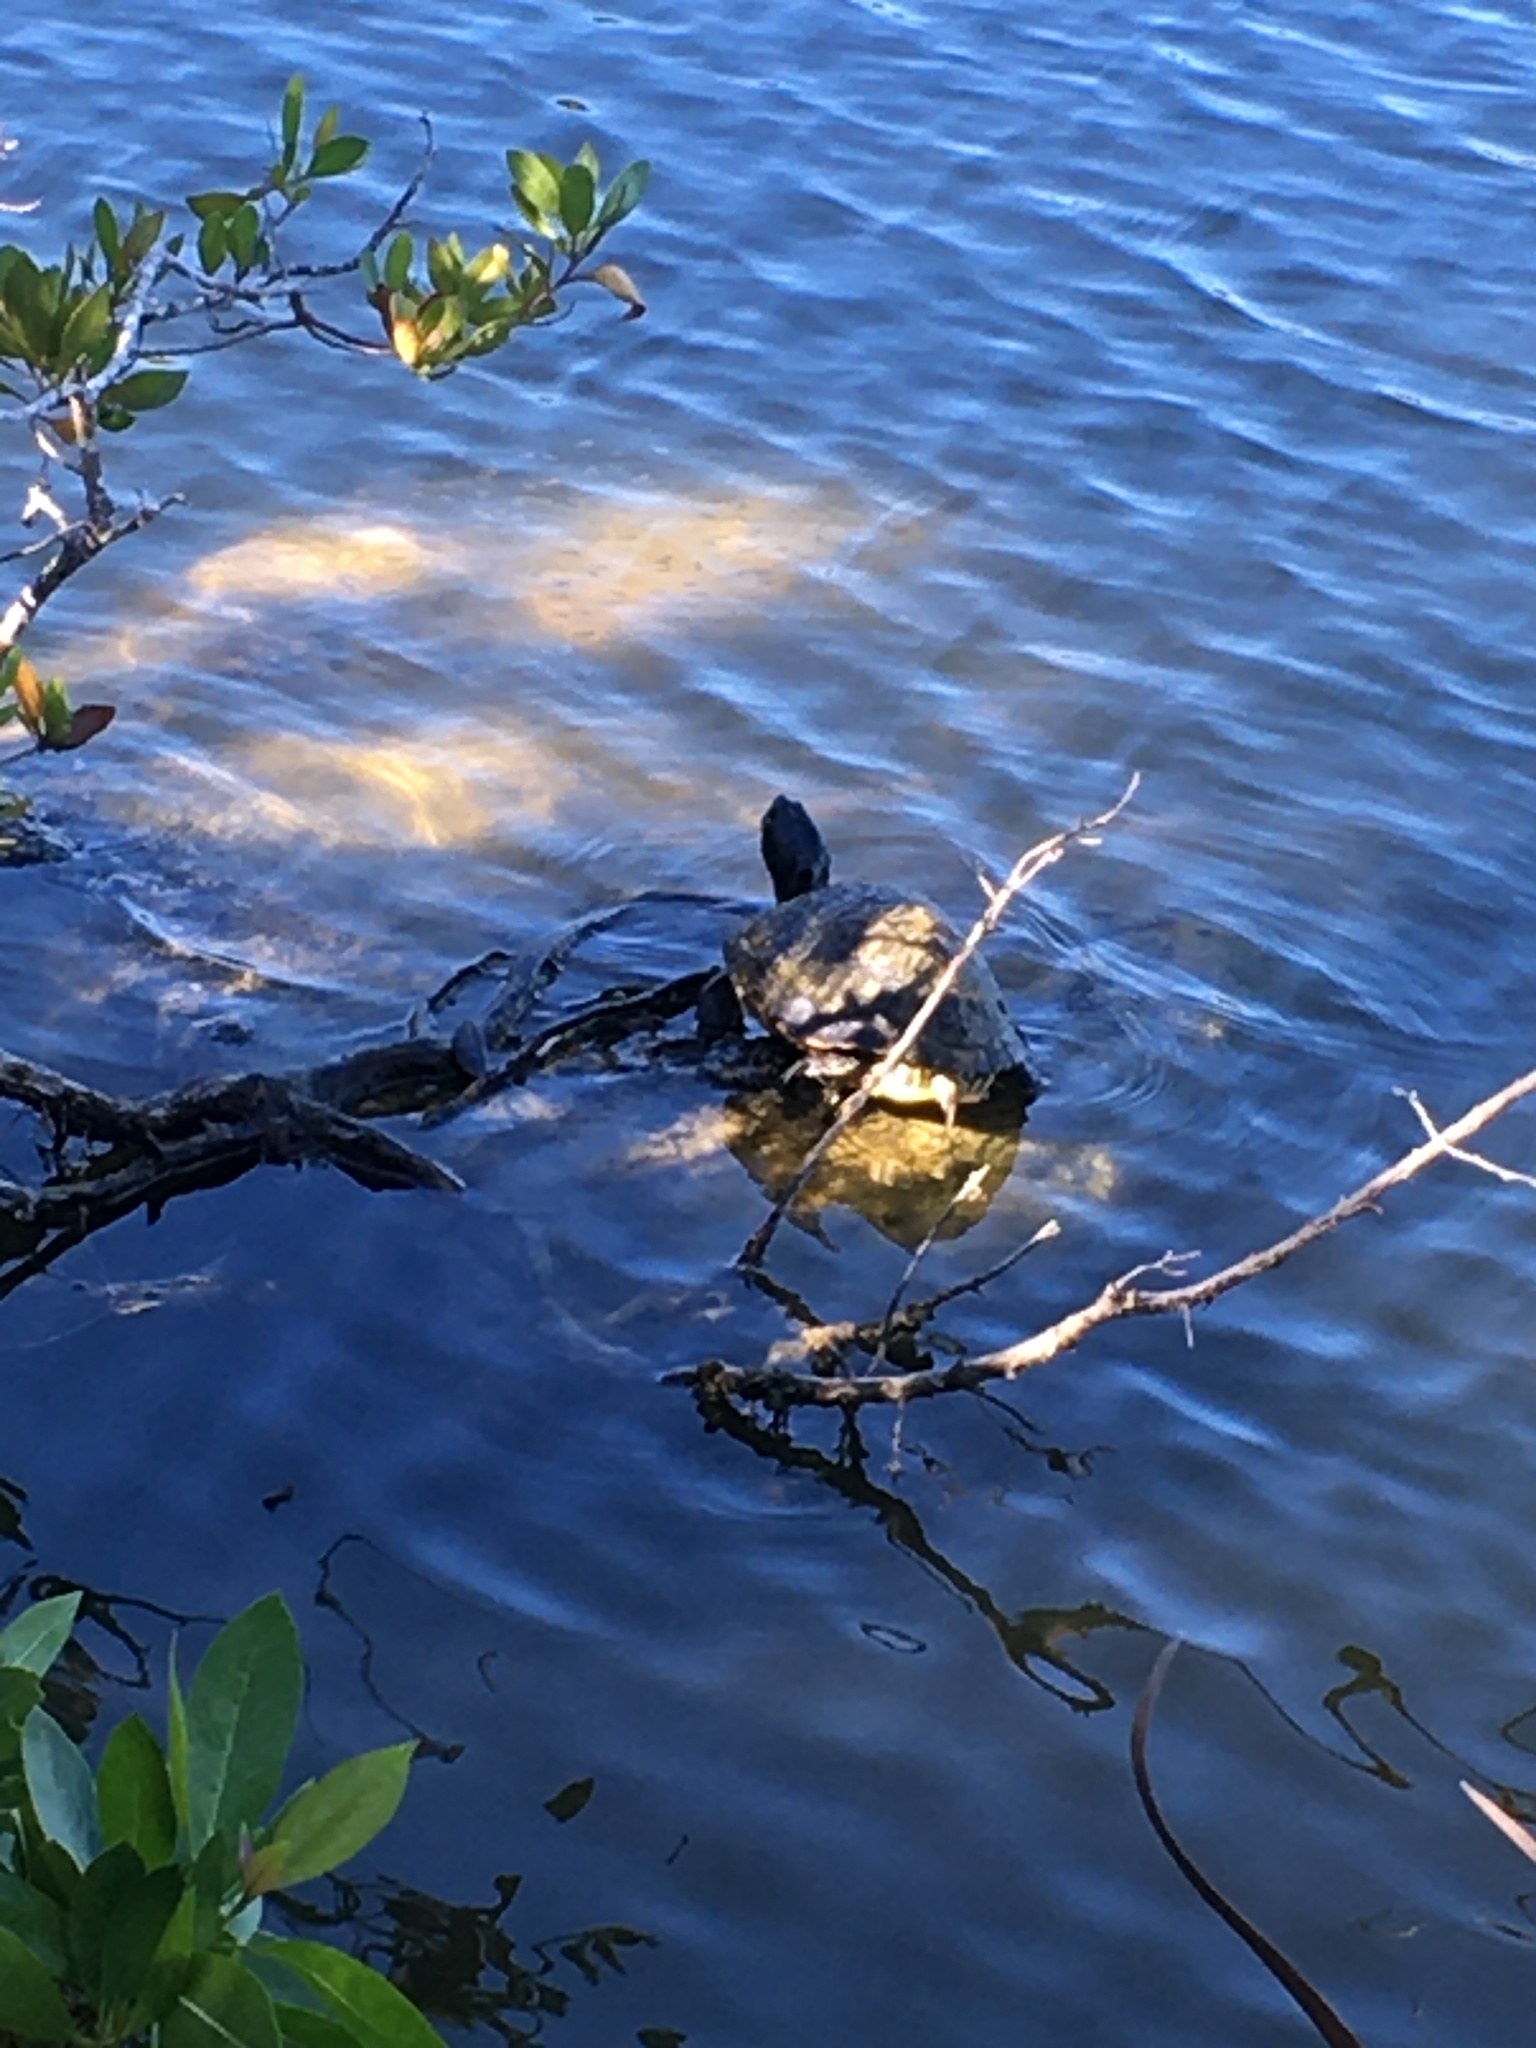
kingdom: Animalia
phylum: Chordata
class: Testudines
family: Emydidae
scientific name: Emydidae
